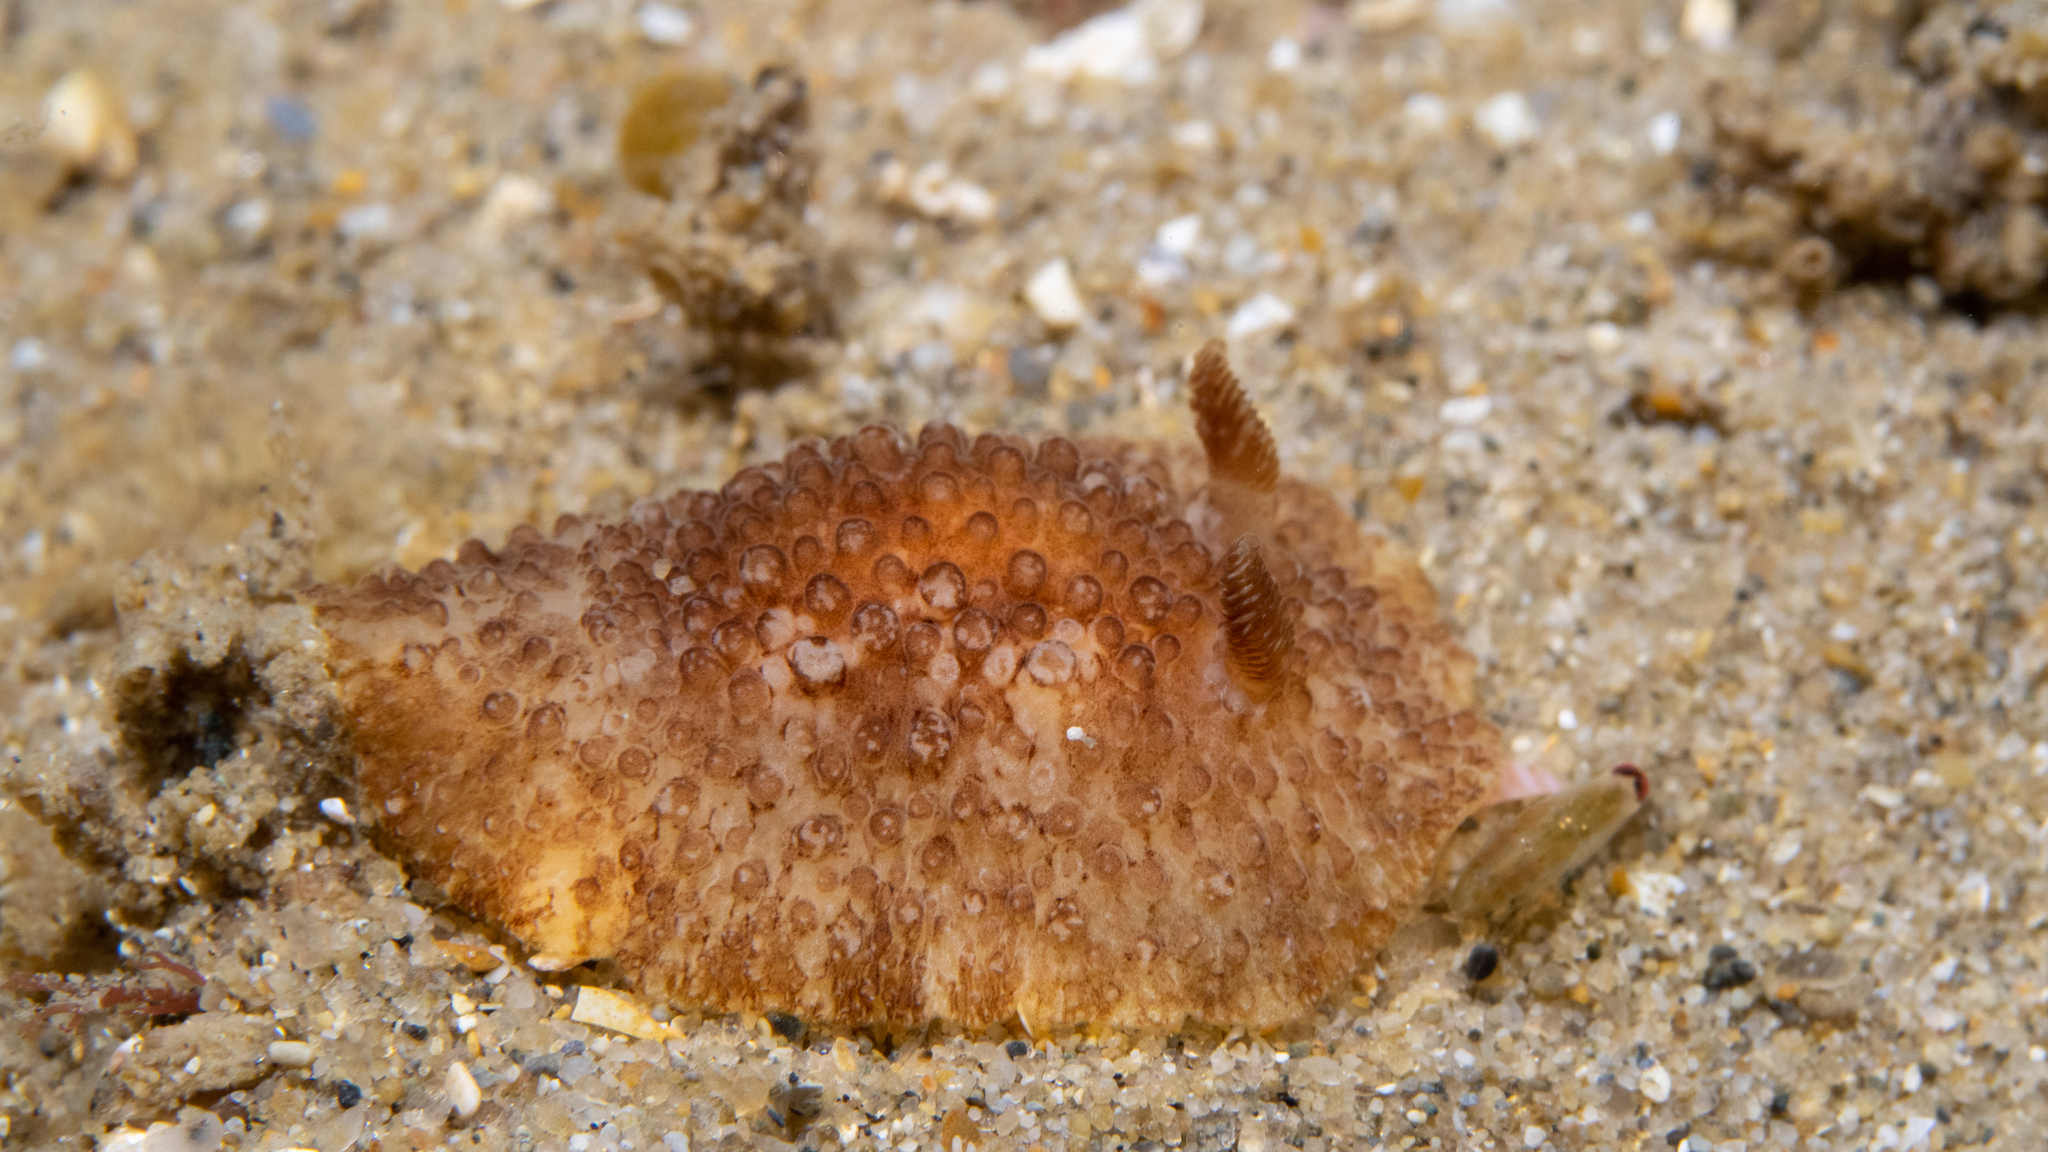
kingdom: Animalia
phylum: Mollusca
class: Gastropoda
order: Nudibranchia
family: Discodorididae
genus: Carminodoris
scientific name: Carminodoris nodulosa
